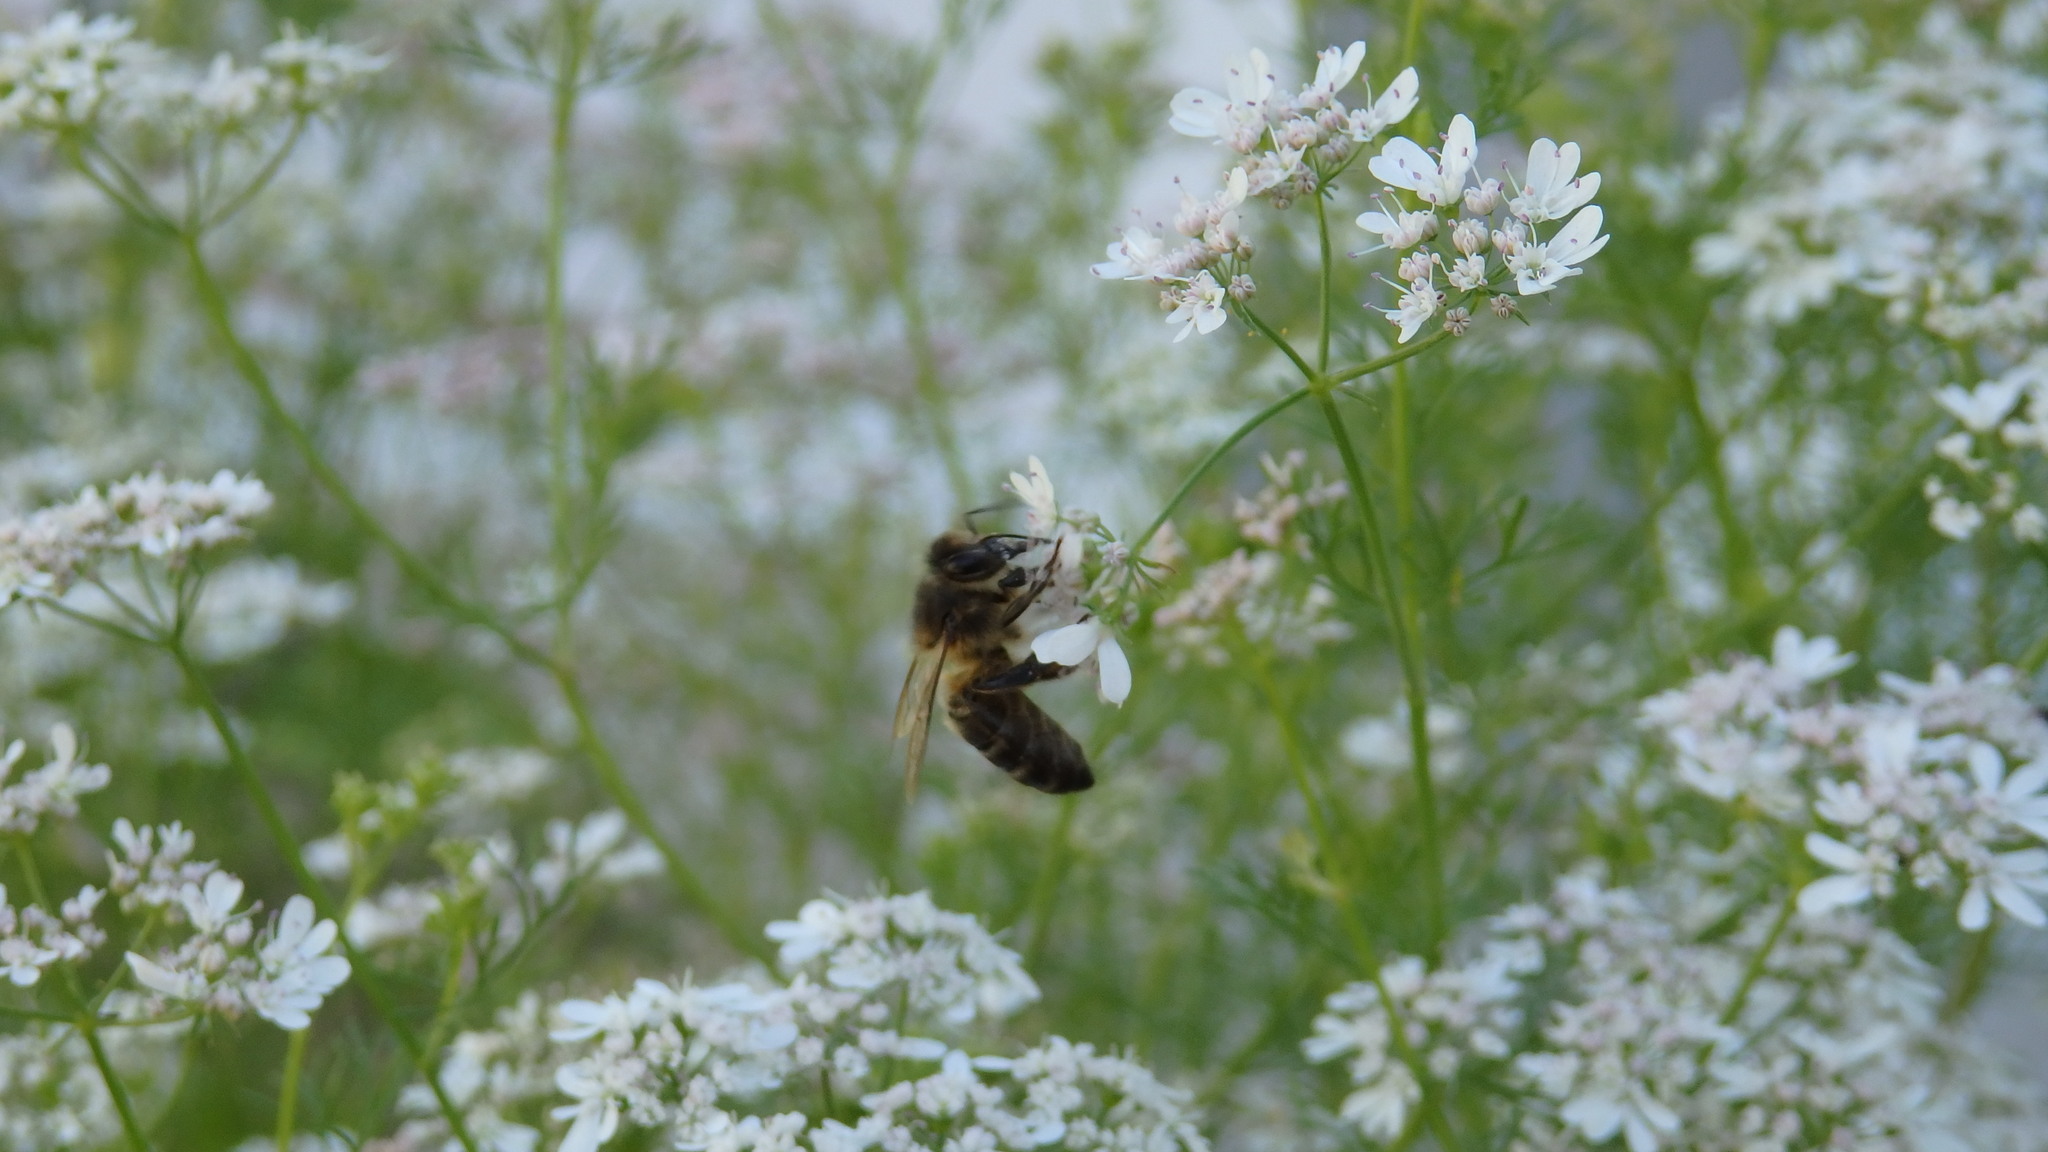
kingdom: Animalia
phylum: Arthropoda
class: Insecta
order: Hymenoptera
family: Apidae
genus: Apis
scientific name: Apis mellifera
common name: Honey bee
